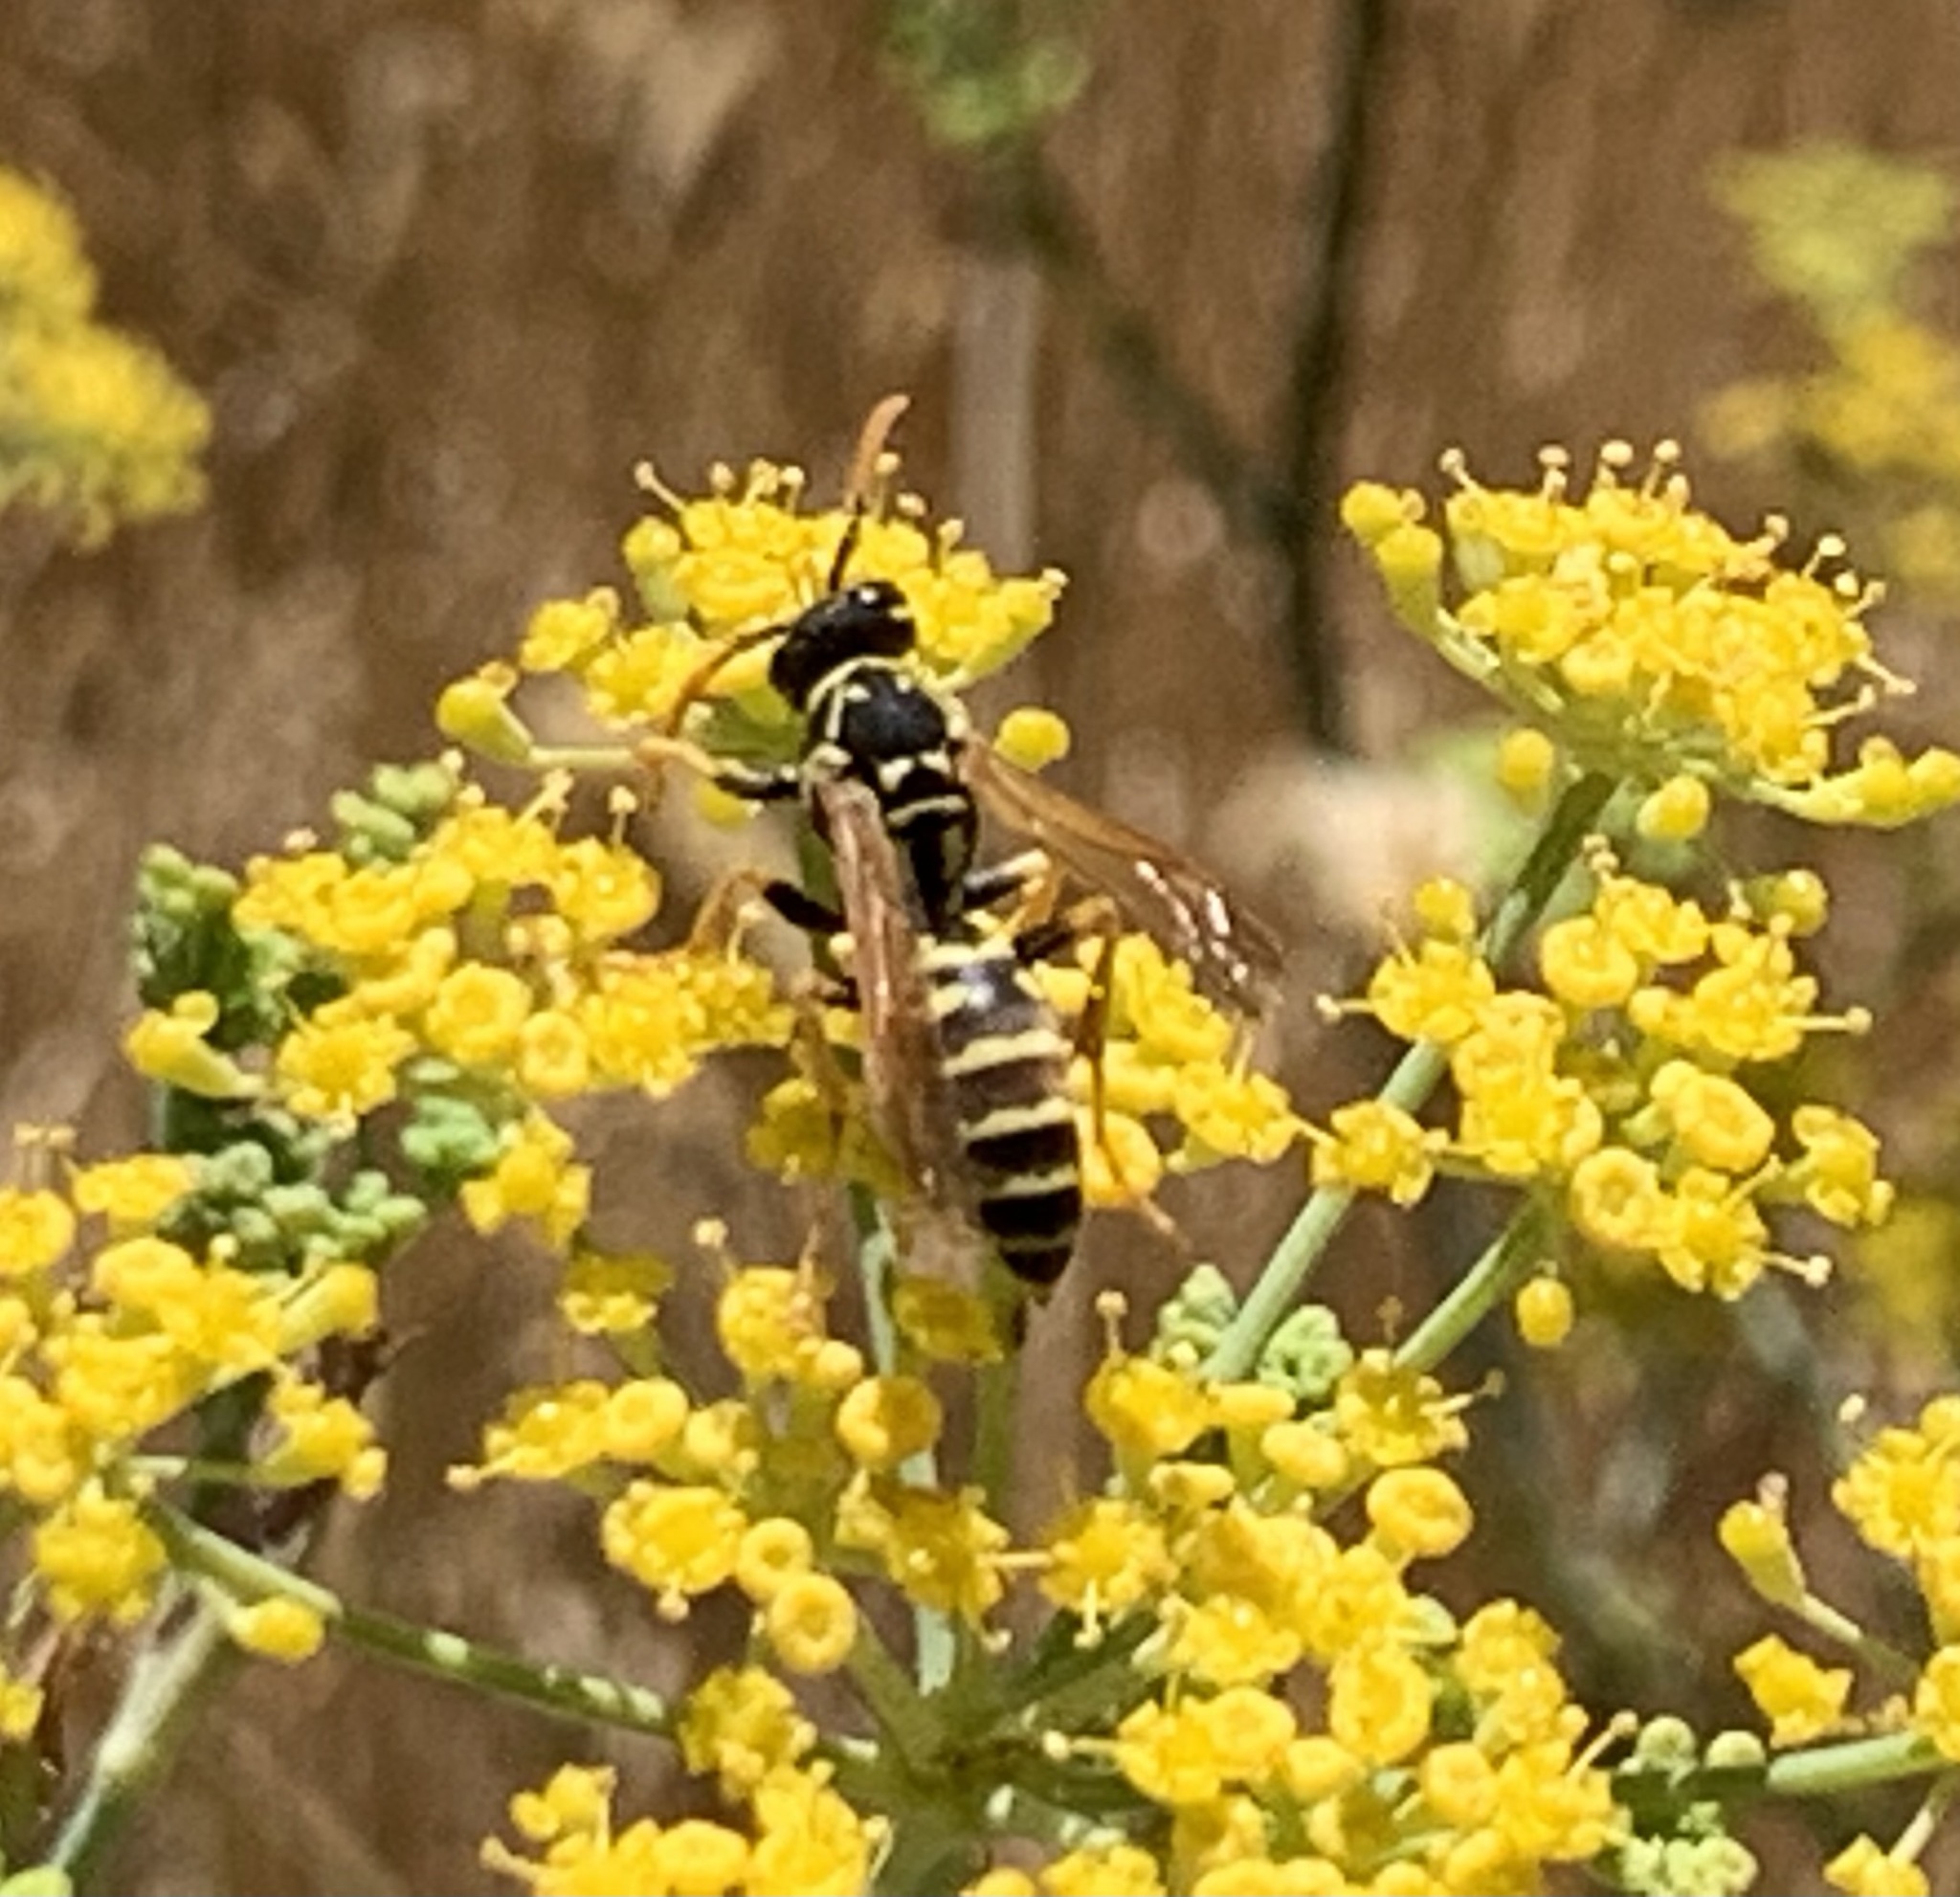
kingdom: Animalia
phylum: Arthropoda
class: Insecta
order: Hymenoptera
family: Eumenidae
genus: Polistes
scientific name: Polistes dominula
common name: Paper wasp
